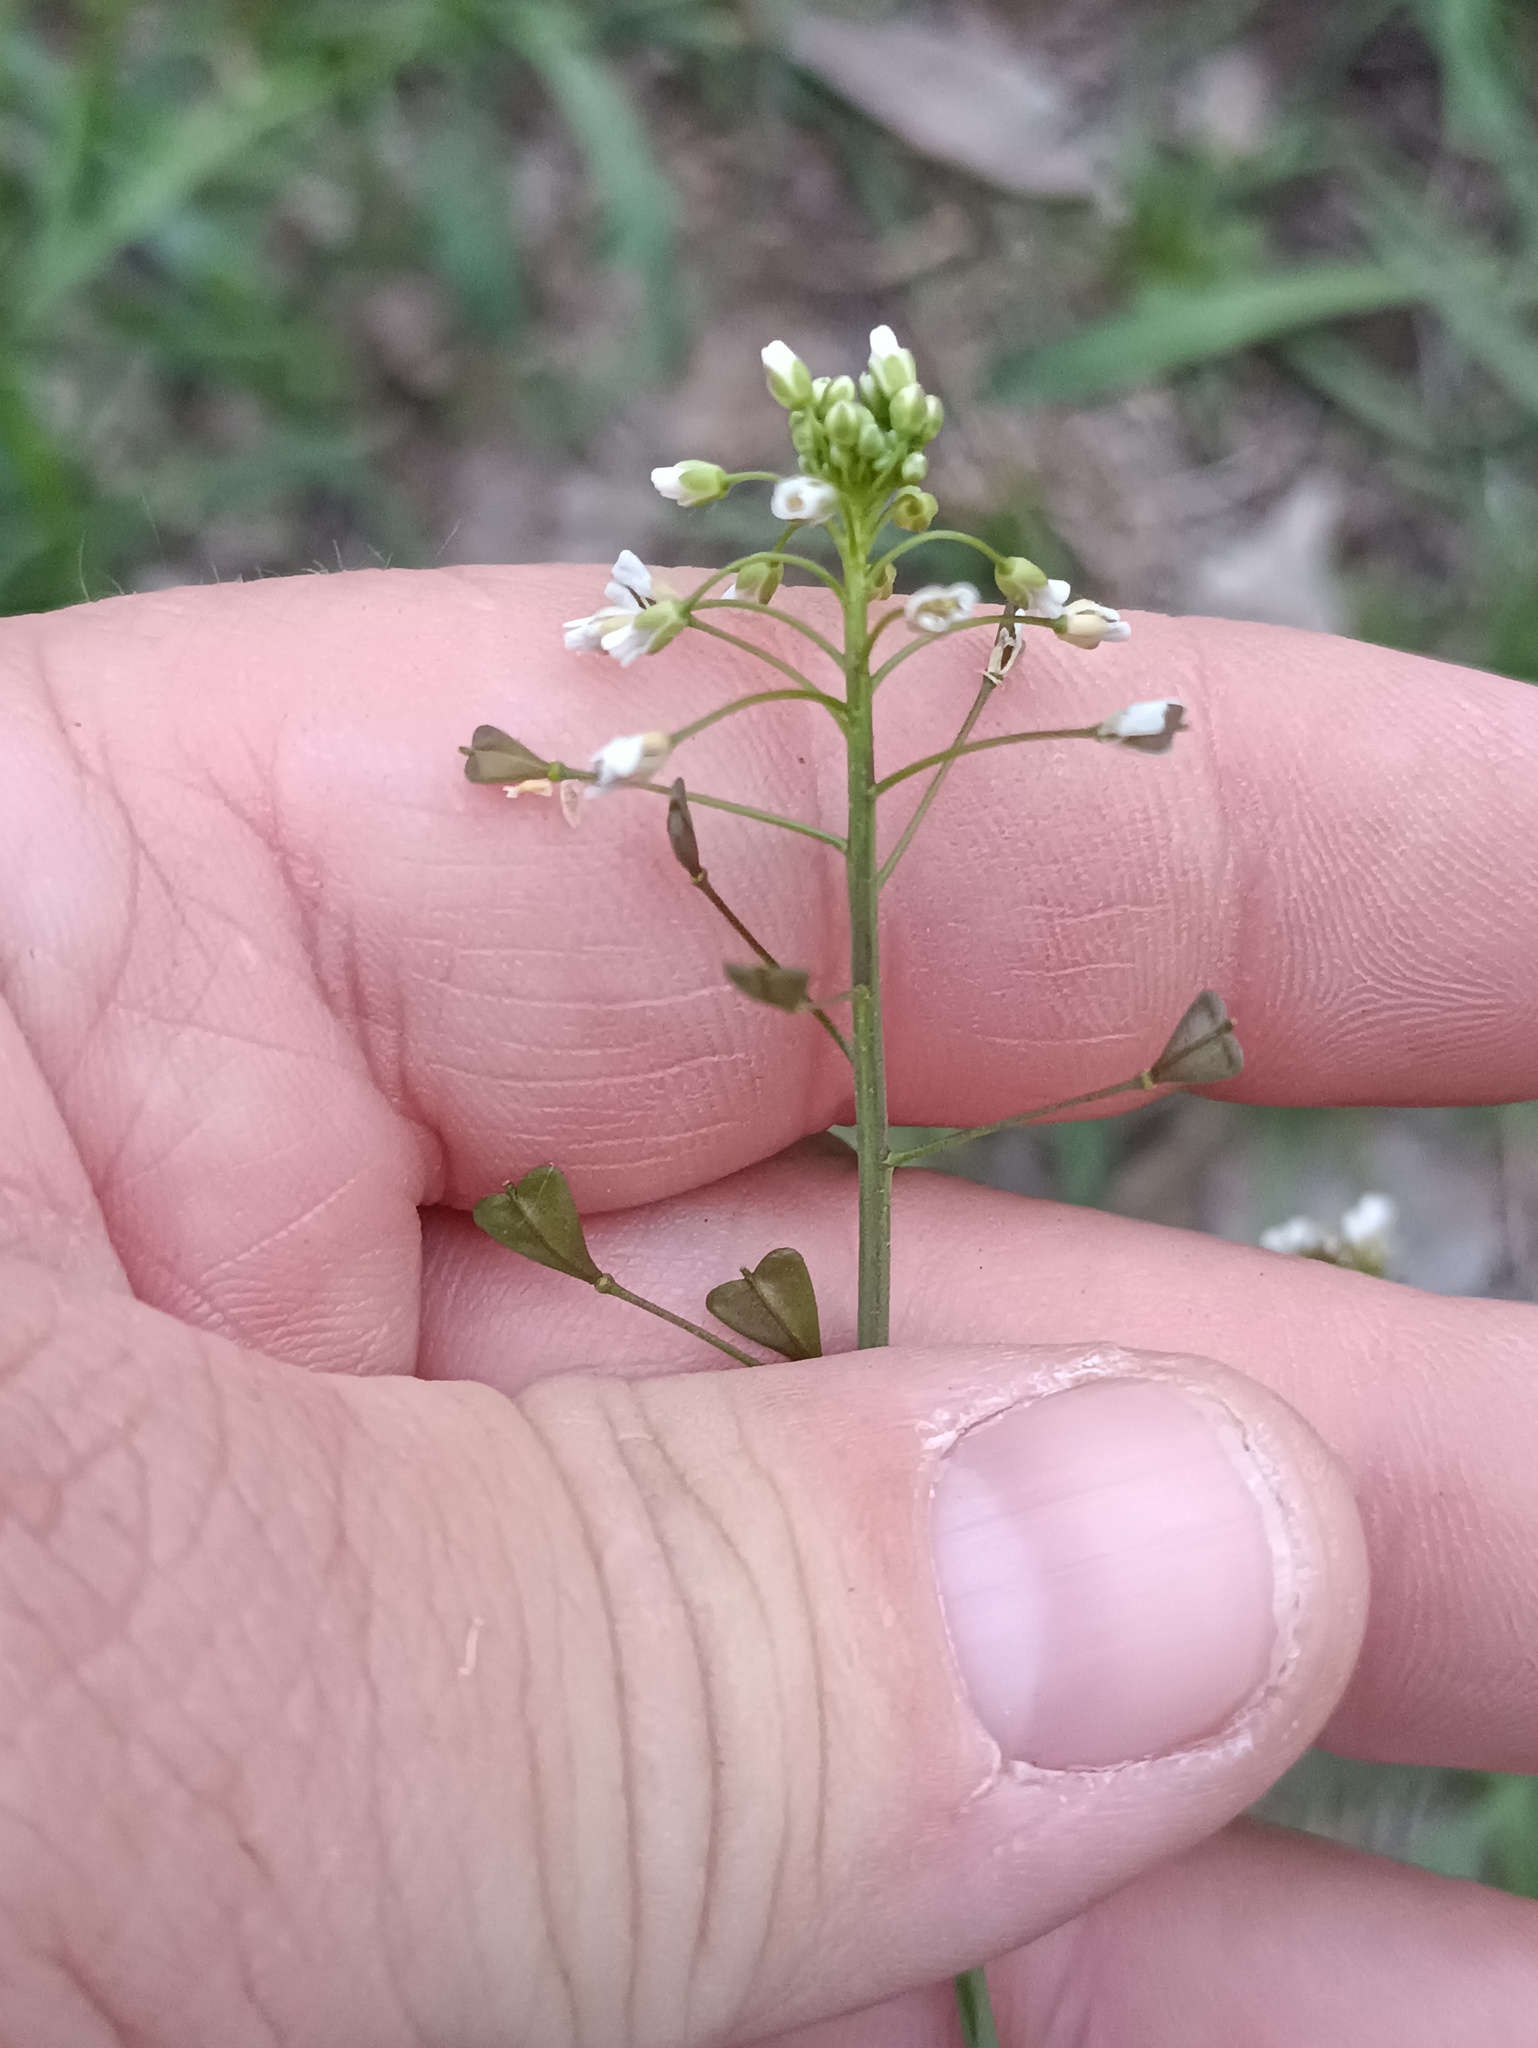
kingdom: Plantae
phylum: Tracheophyta
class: Magnoliopsida
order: Brassicales
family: Brassicaceae
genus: Capsella
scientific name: Capsella bursa-pastoris
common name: Shepherd's purse
